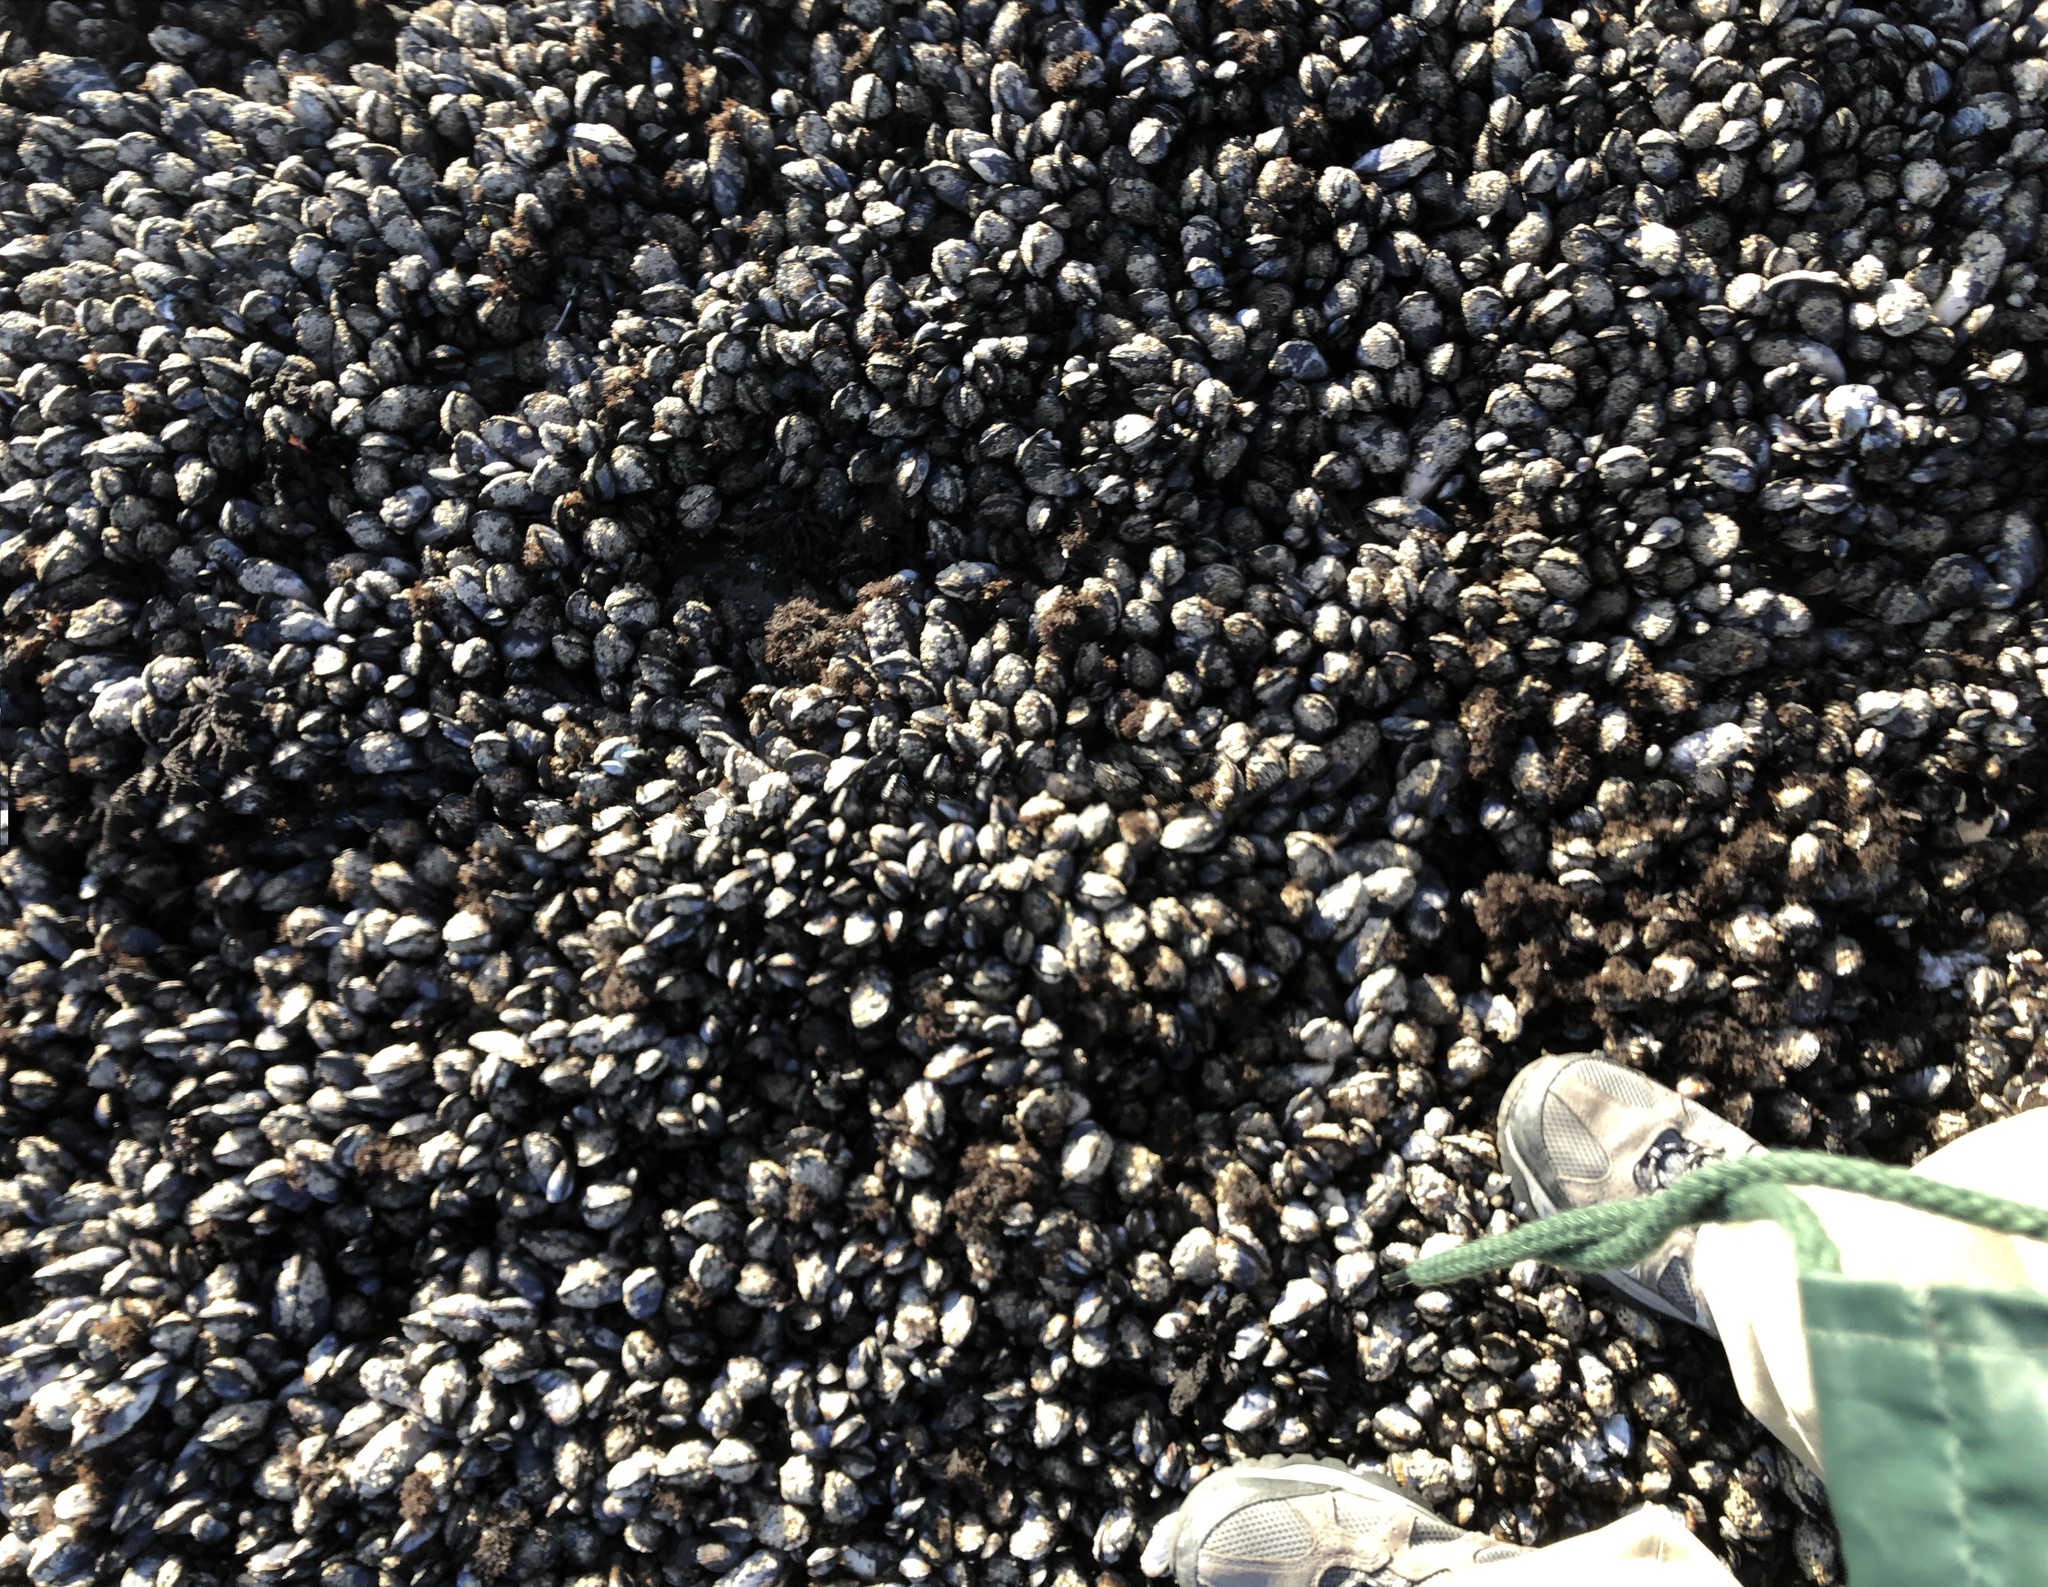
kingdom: Animalia
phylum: Mollusca
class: Bivalvia
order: Mytilida
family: Mytilidae
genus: Mytilus
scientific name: Mytilus californianus
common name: California mussel
